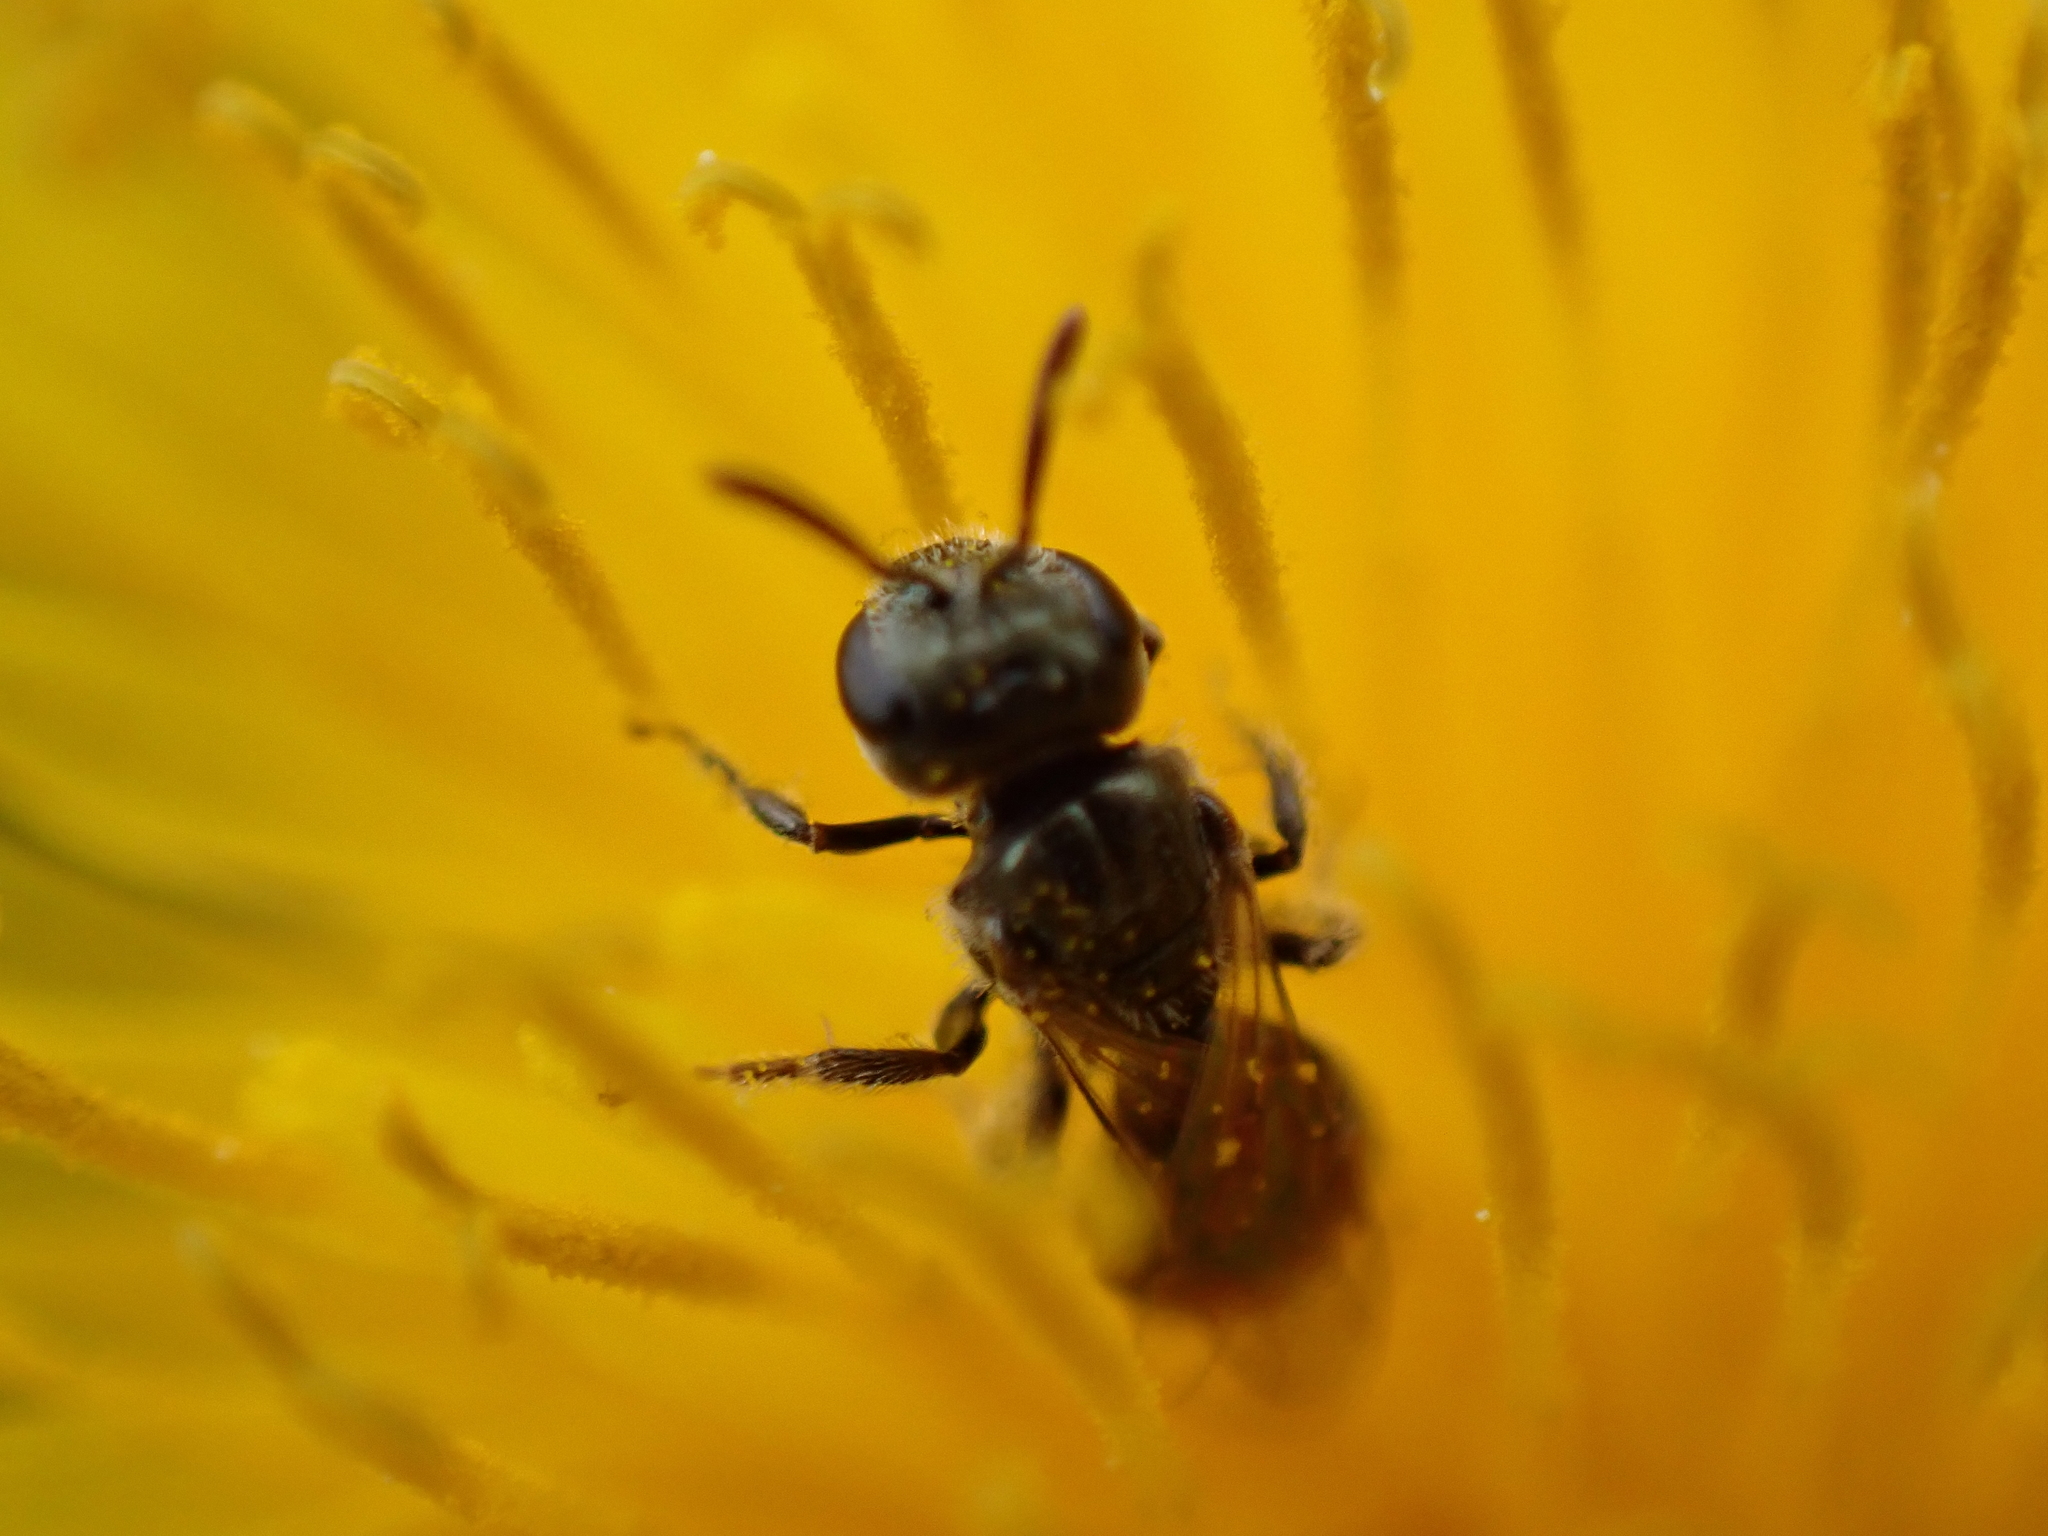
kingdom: Animalia
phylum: Arthropoda
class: Insecta
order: Hymenoptera
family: Halictidae
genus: Lasioglossum
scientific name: Lasioglossum imitatum
